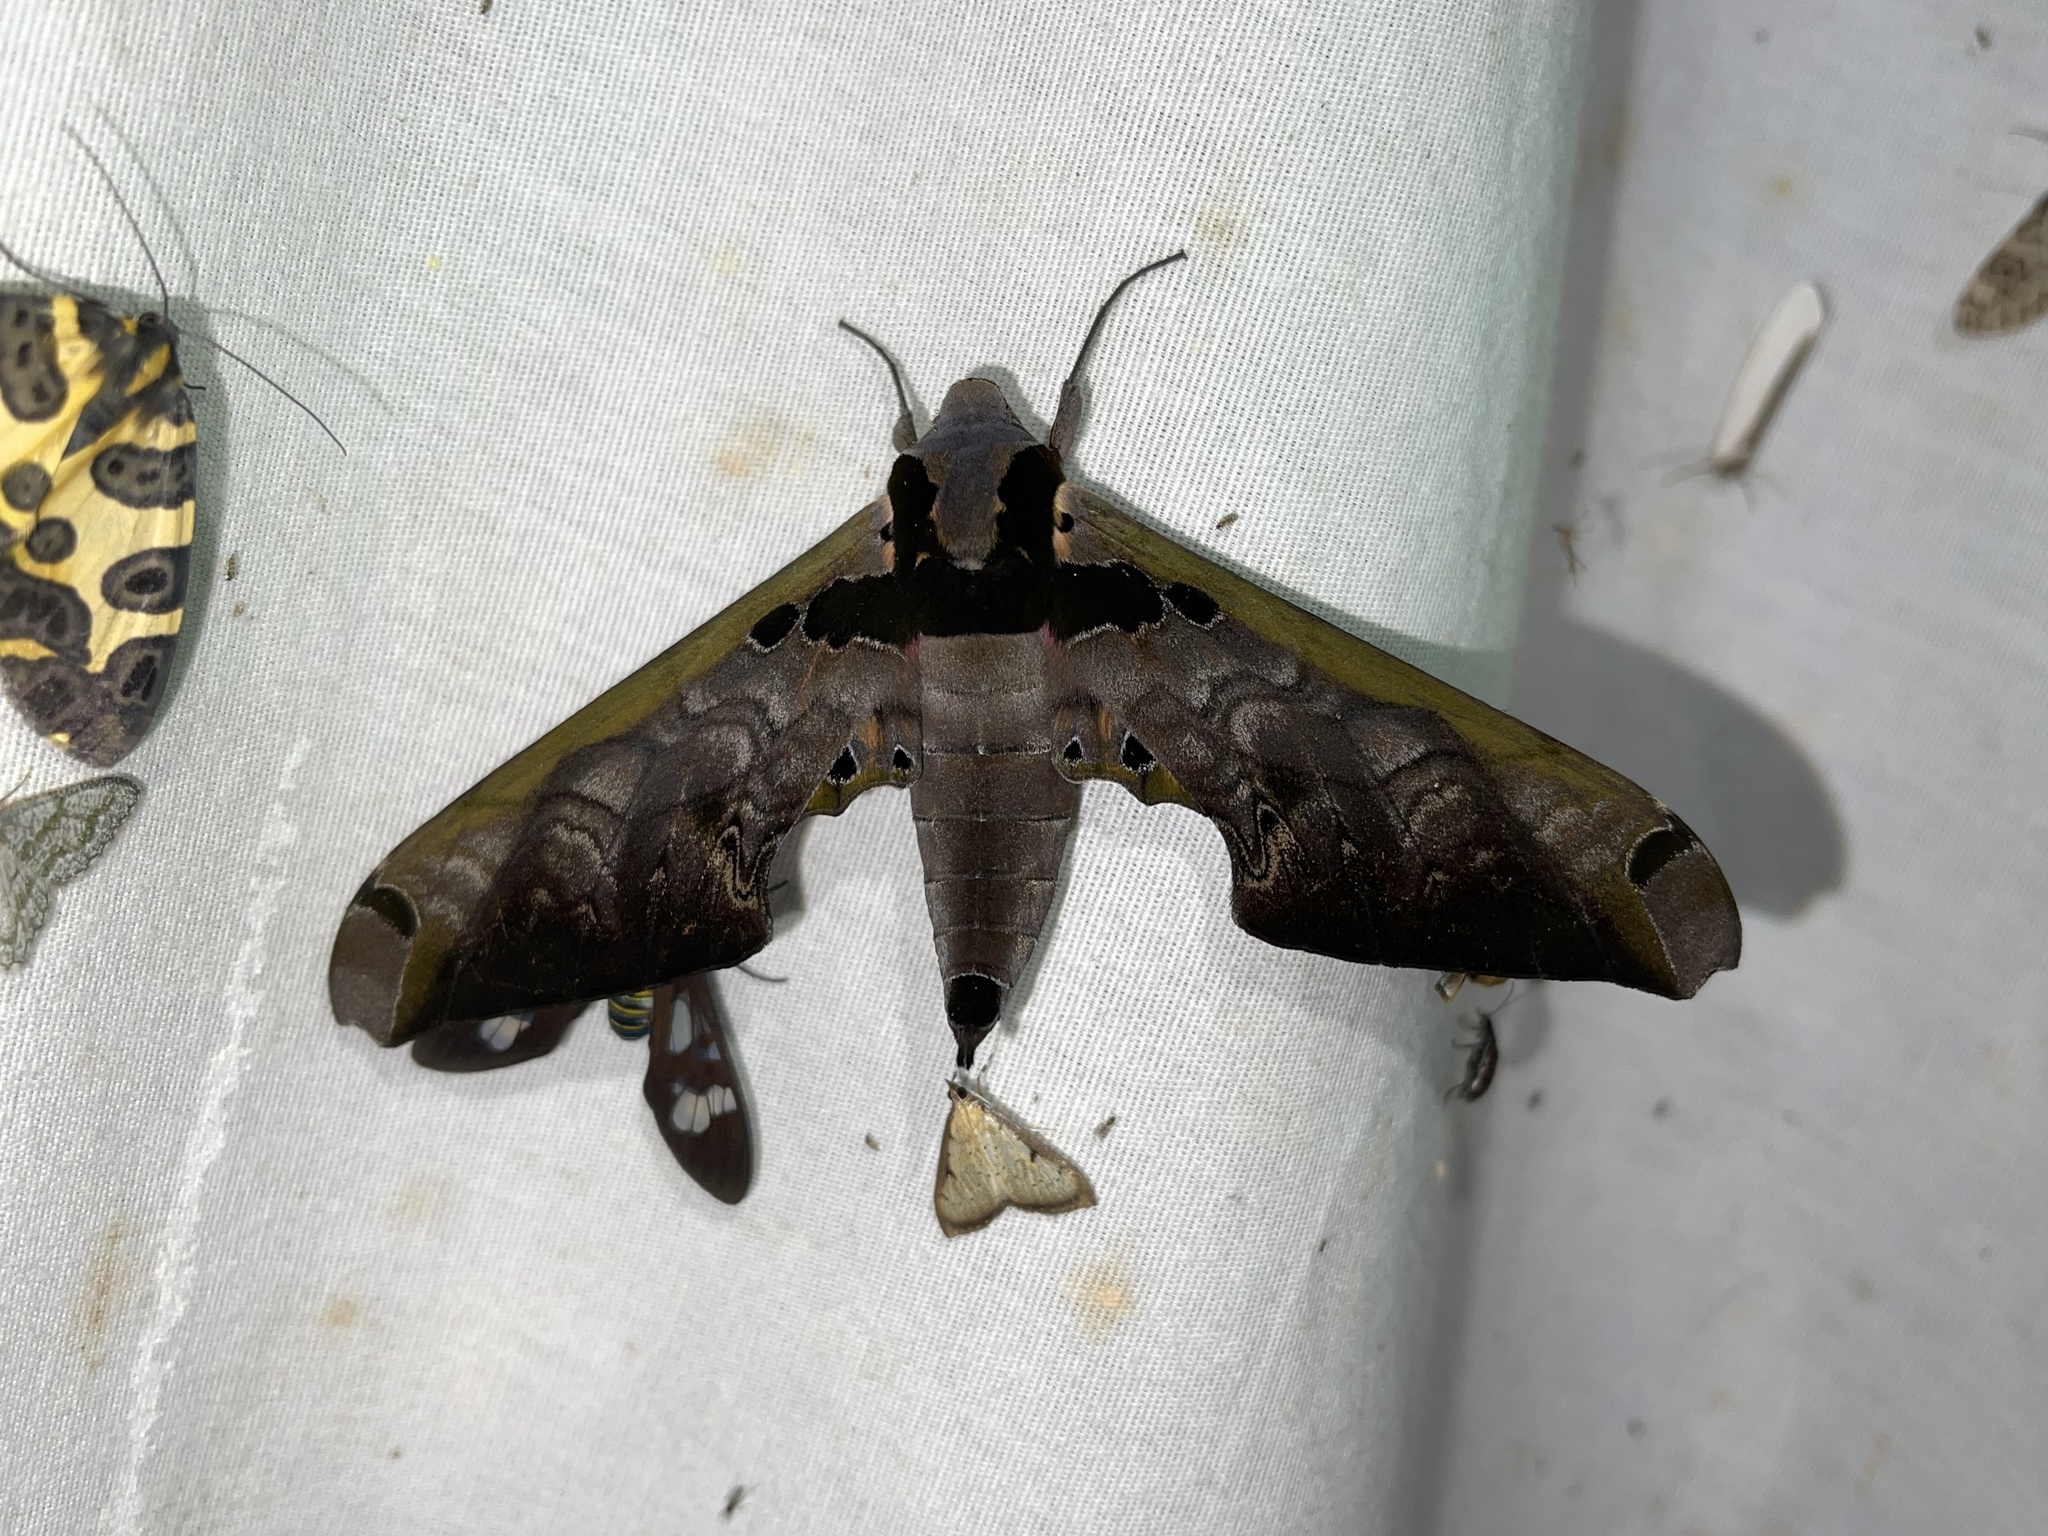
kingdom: Animalia
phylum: Arthropoda
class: Insecta
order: Lepidoptera
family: Sphingidae
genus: Adhemarius
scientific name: Adhemarius sexoculata
